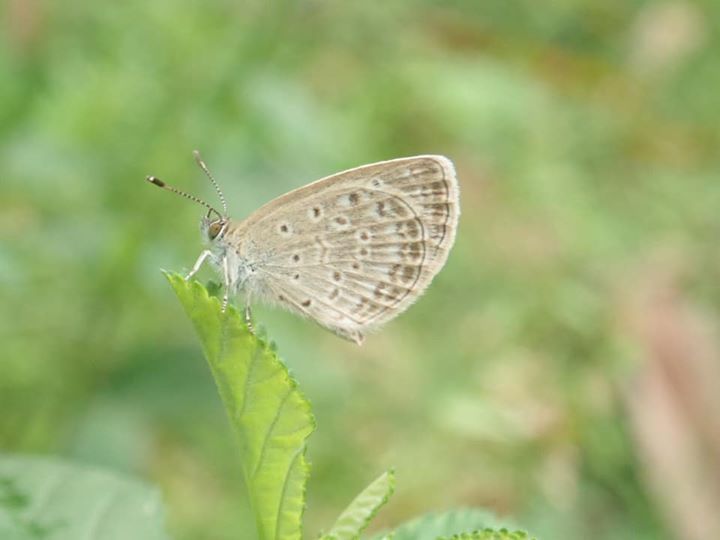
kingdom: Animalia
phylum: Arthropoda
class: Insecta
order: Lepidoptera
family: Lycaenidae
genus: Pseudozizeeria
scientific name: Pseudozizeeria maha
